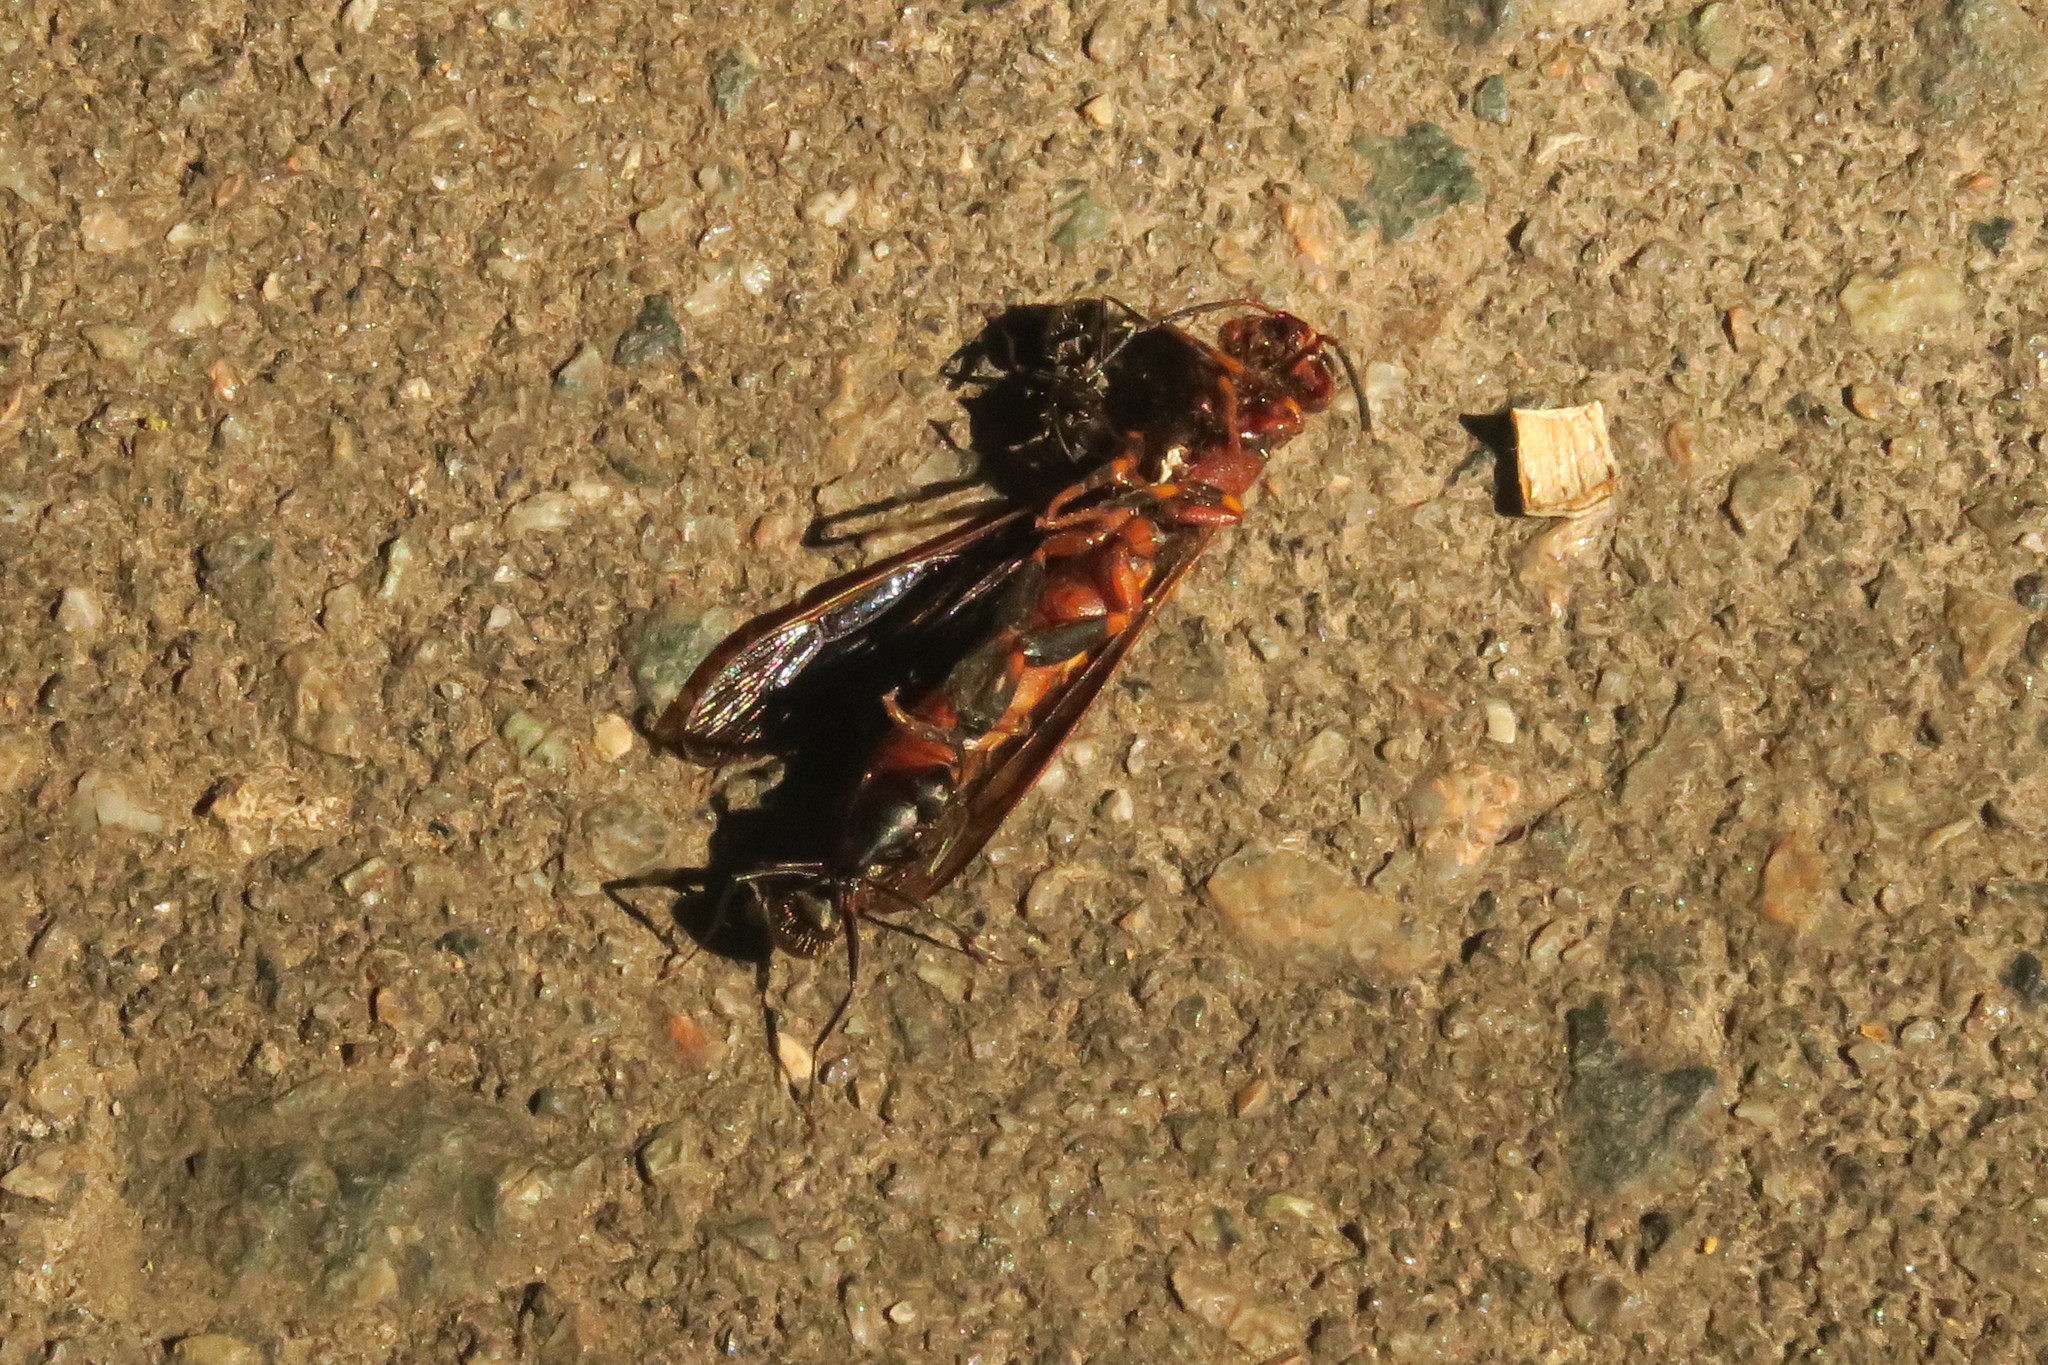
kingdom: Animalia
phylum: Arthropoda
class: Insecta
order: Hymenoptera
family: Formicidae
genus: Camponotus
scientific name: Camponotus pennsylvanicus
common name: Black carpenter ant
